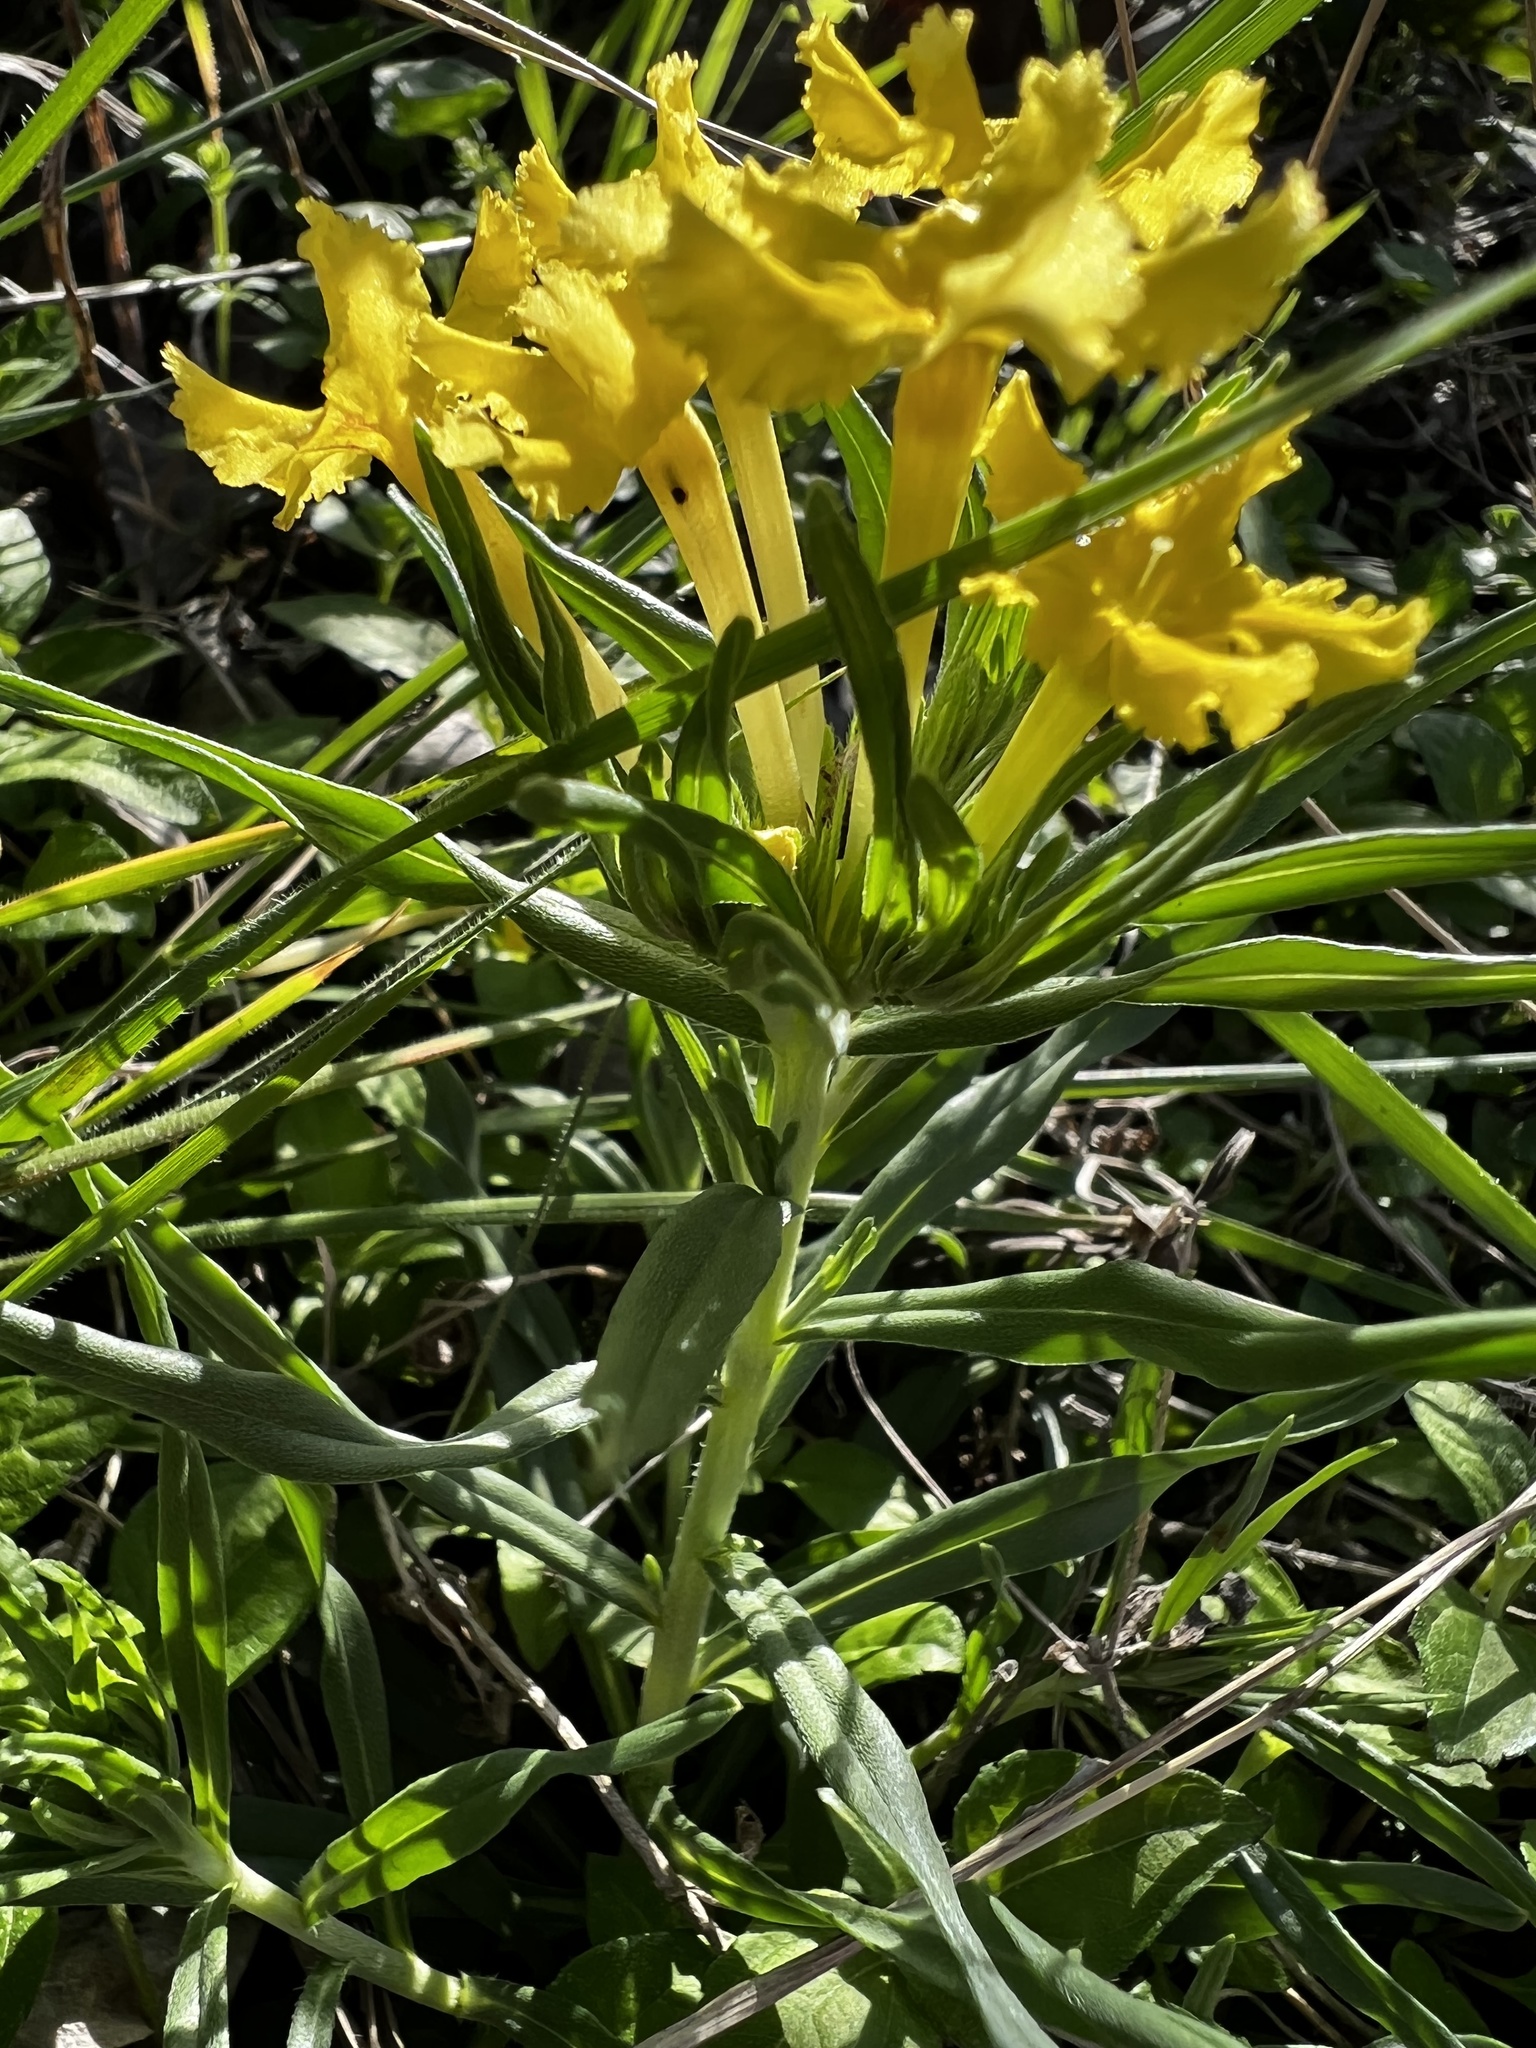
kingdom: Plantae
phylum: Tracheophyta
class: Magnoliopsida
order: Boraginales
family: Boraginaceae
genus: Lithospermum
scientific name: Lithospermum incisum
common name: Fringed gromwell
